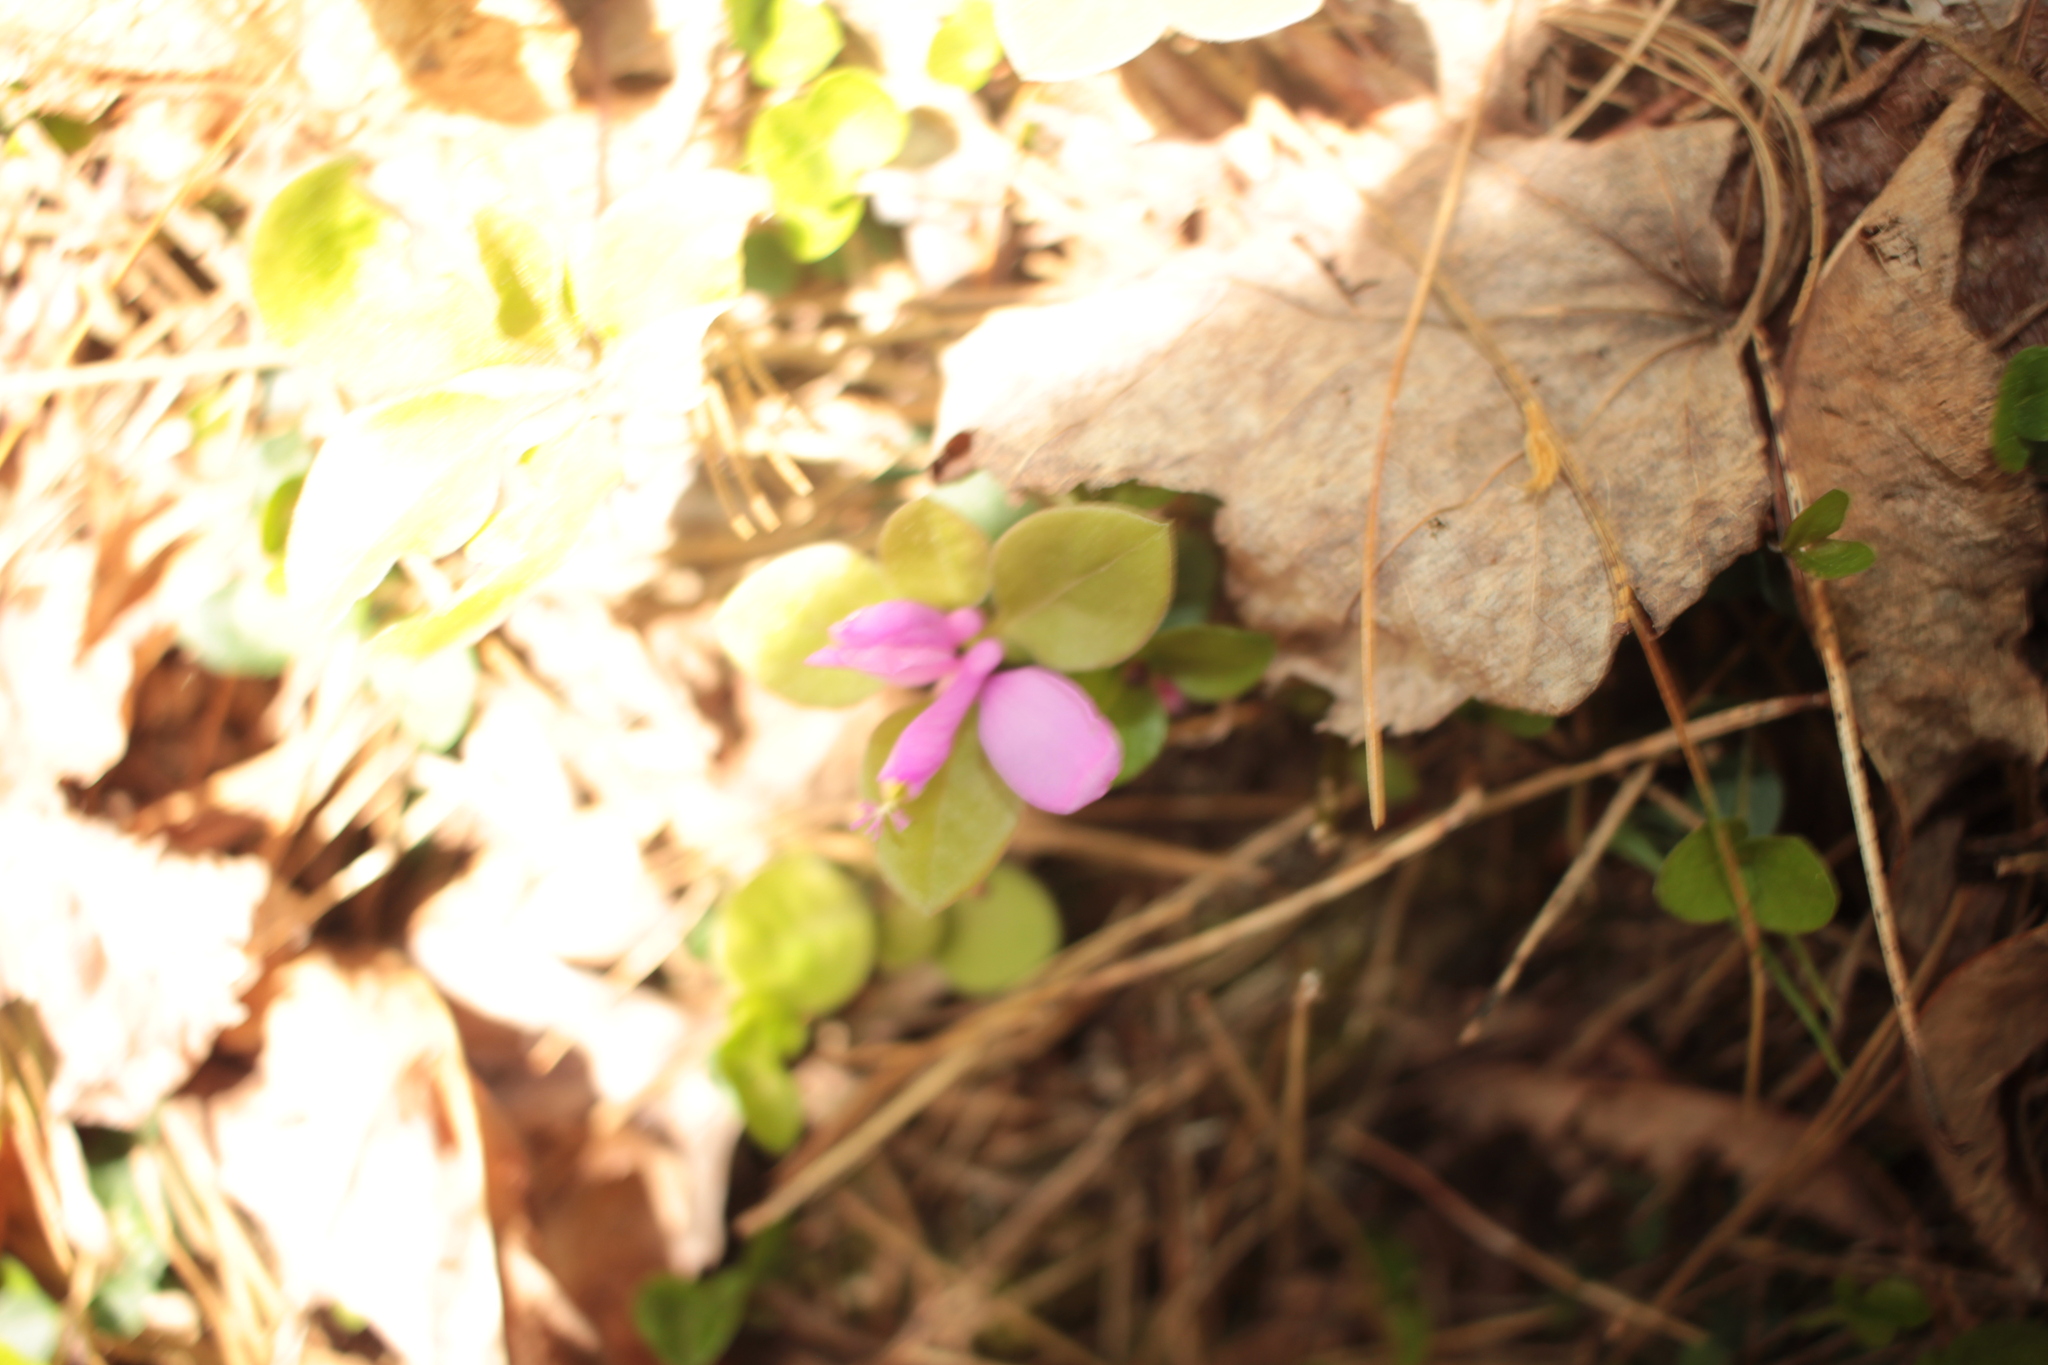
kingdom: Plantae
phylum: Tracheophyta
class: Magnoliopsida
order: Fabales
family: Polygalaceae
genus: Polygaloides
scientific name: Polygaloides paucifolia
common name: Bird-on-the-wing
